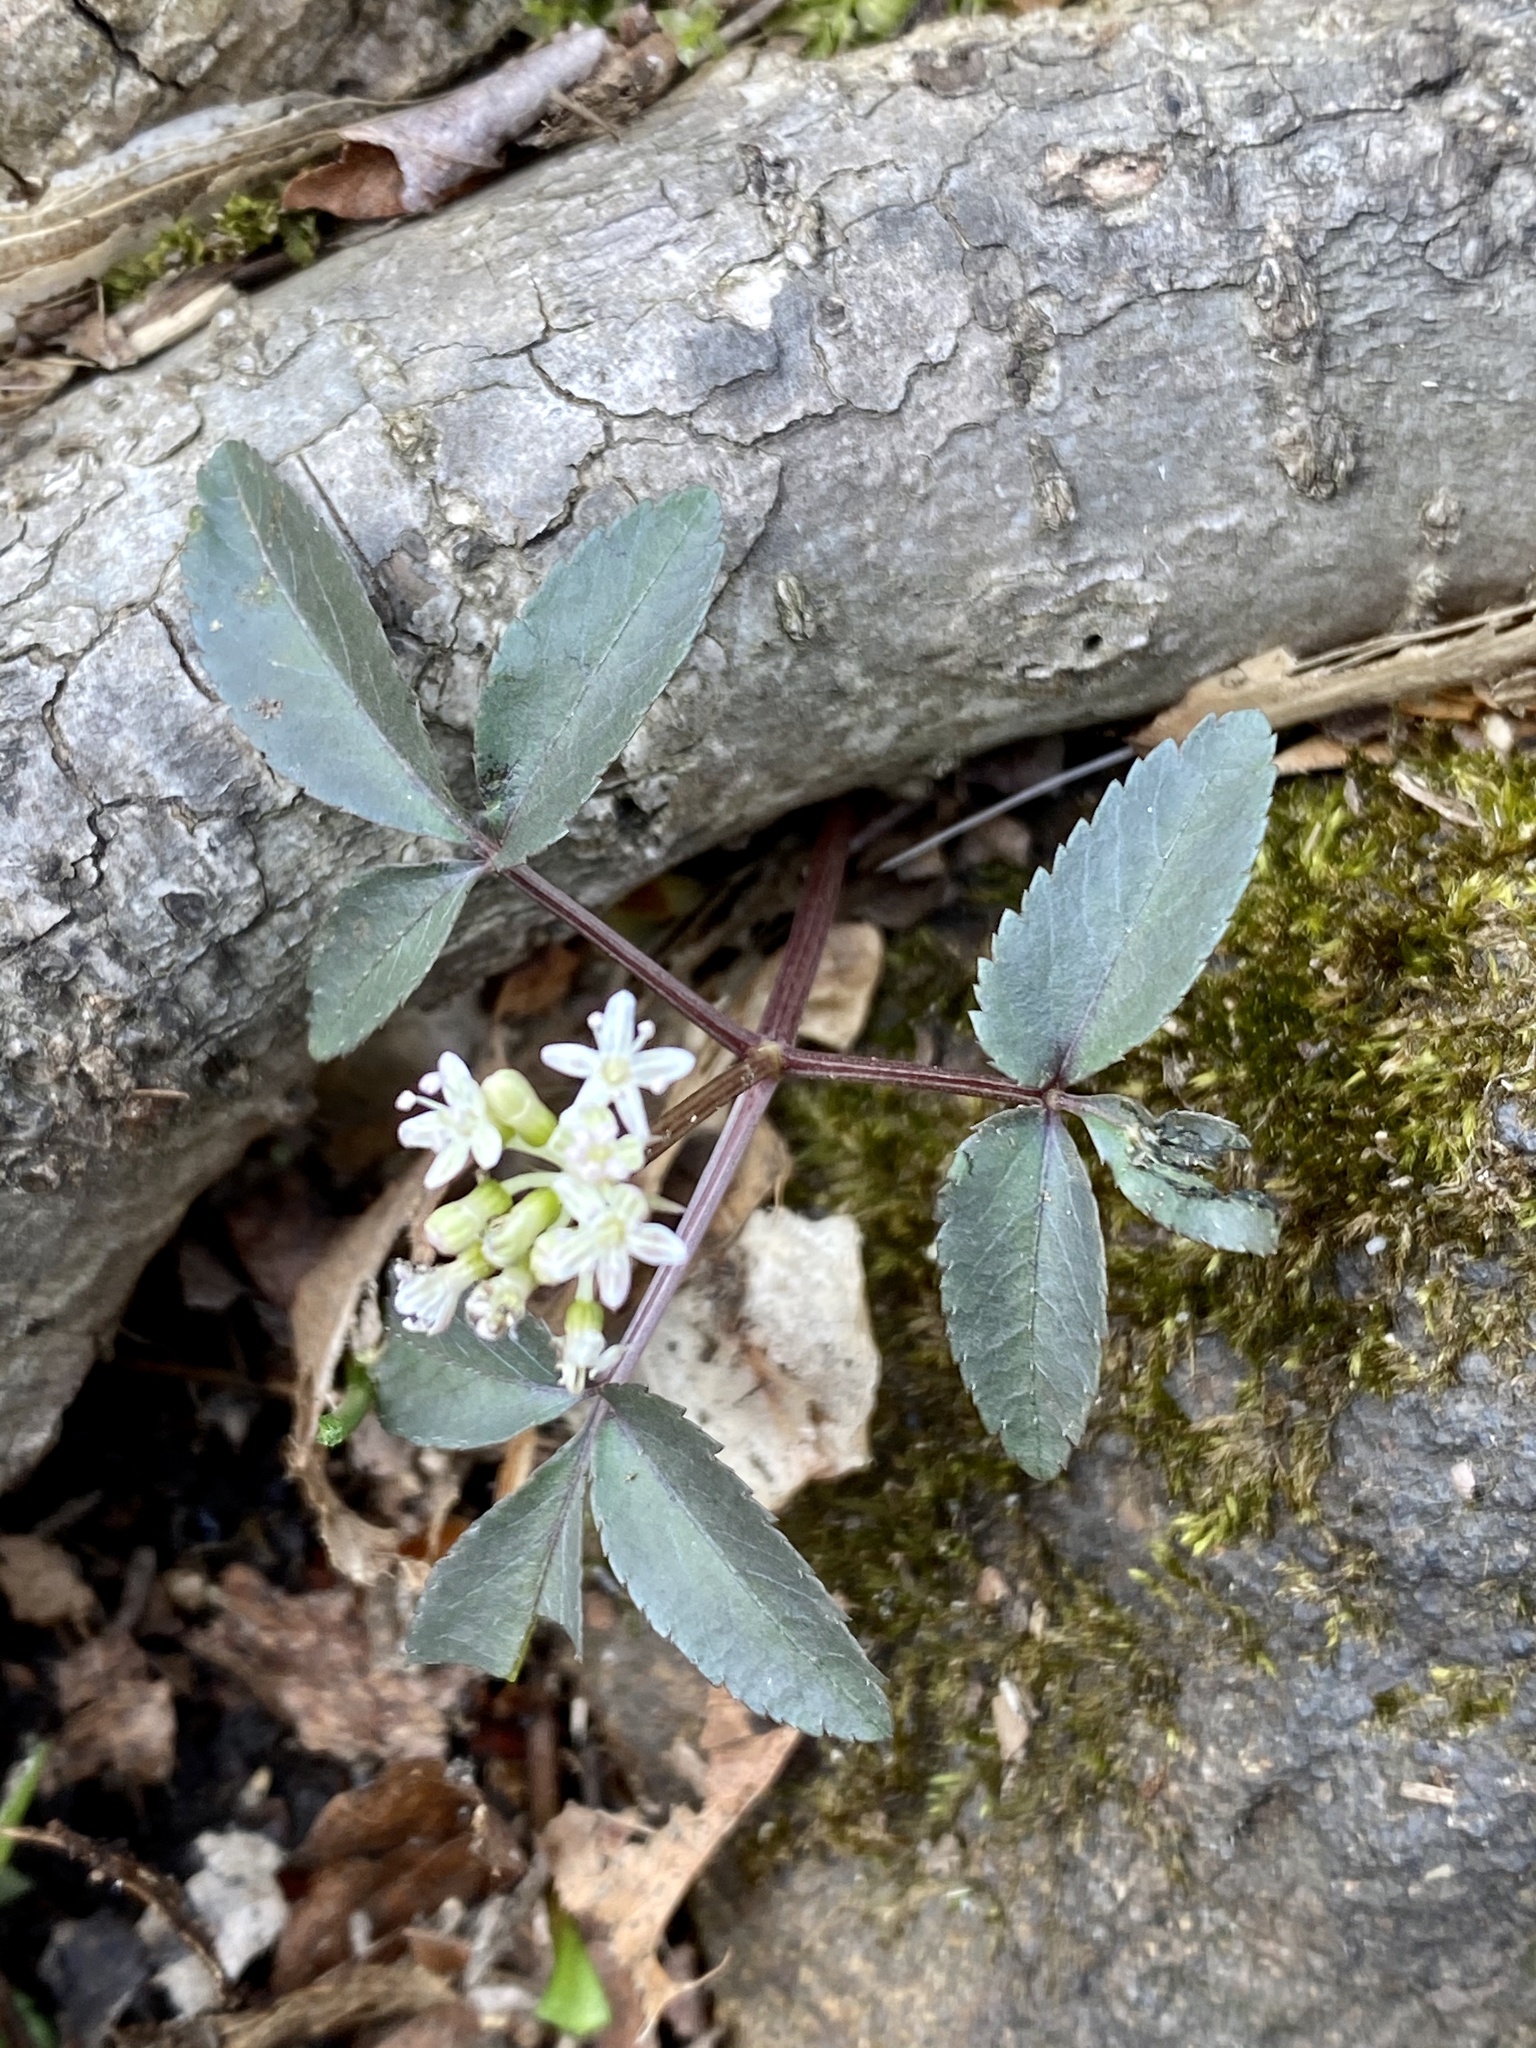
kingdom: Plantae
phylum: Tracheophyta
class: Magnoliopsida
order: Apiales
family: Araliaceae
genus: Panax
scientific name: Panax trifolius
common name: Dwarf ginseng
